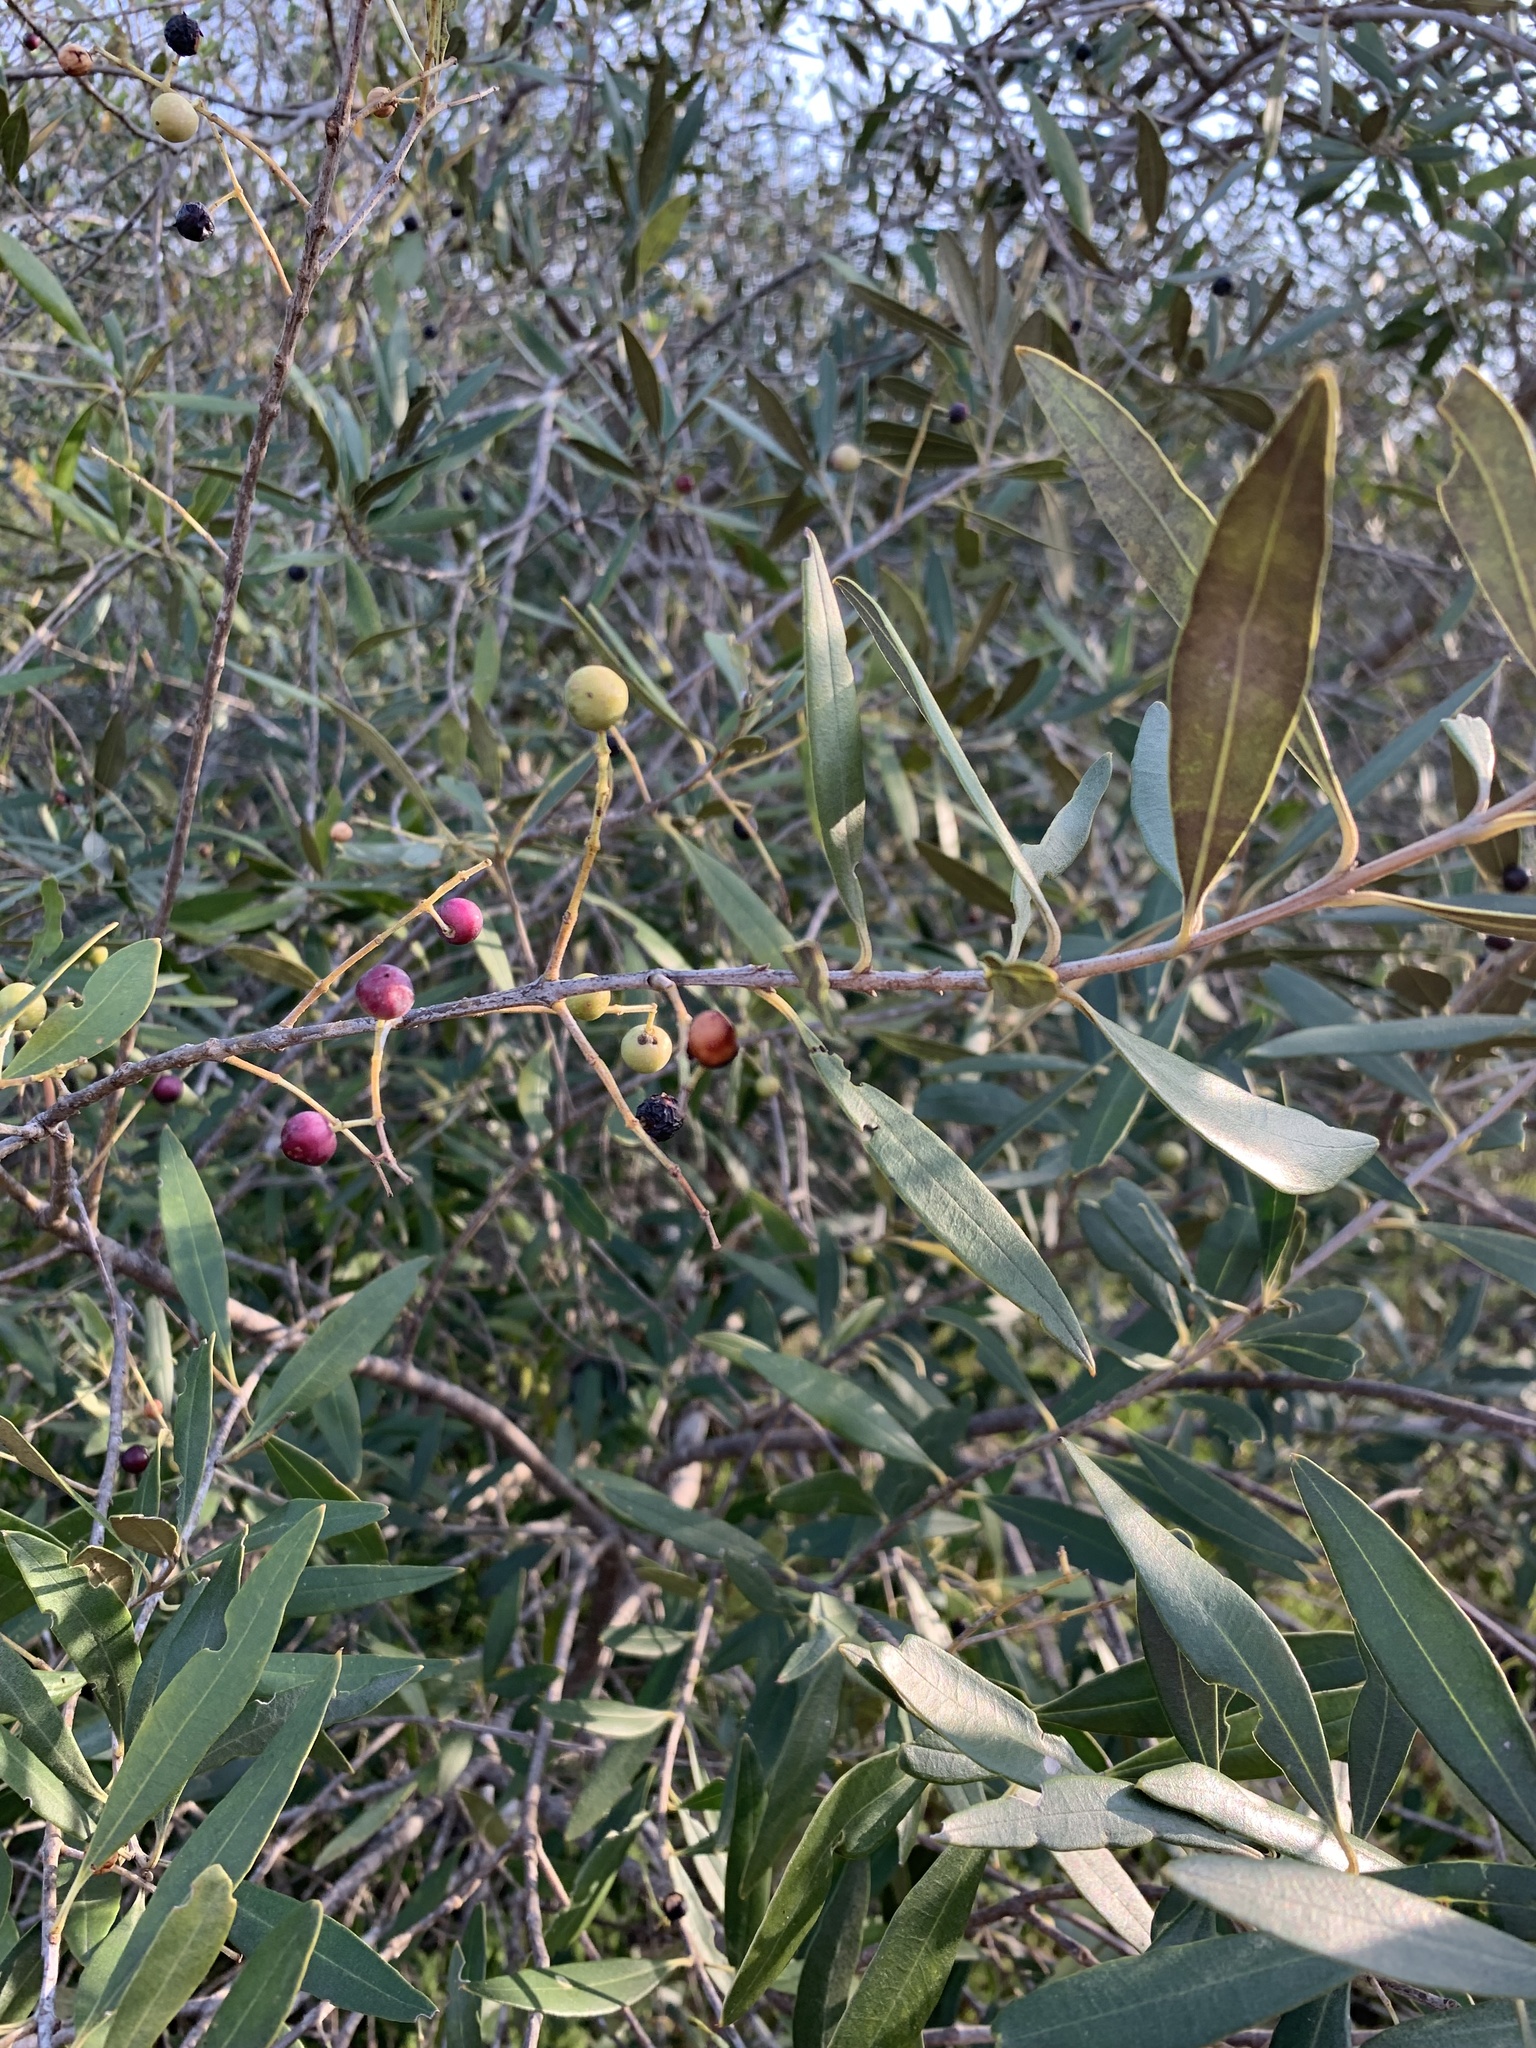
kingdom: Plantae
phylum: Tracheophyta
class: Magnoliopsida
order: Lamiales
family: Oleaceae
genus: Olea
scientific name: Olea europaea
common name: Olive
